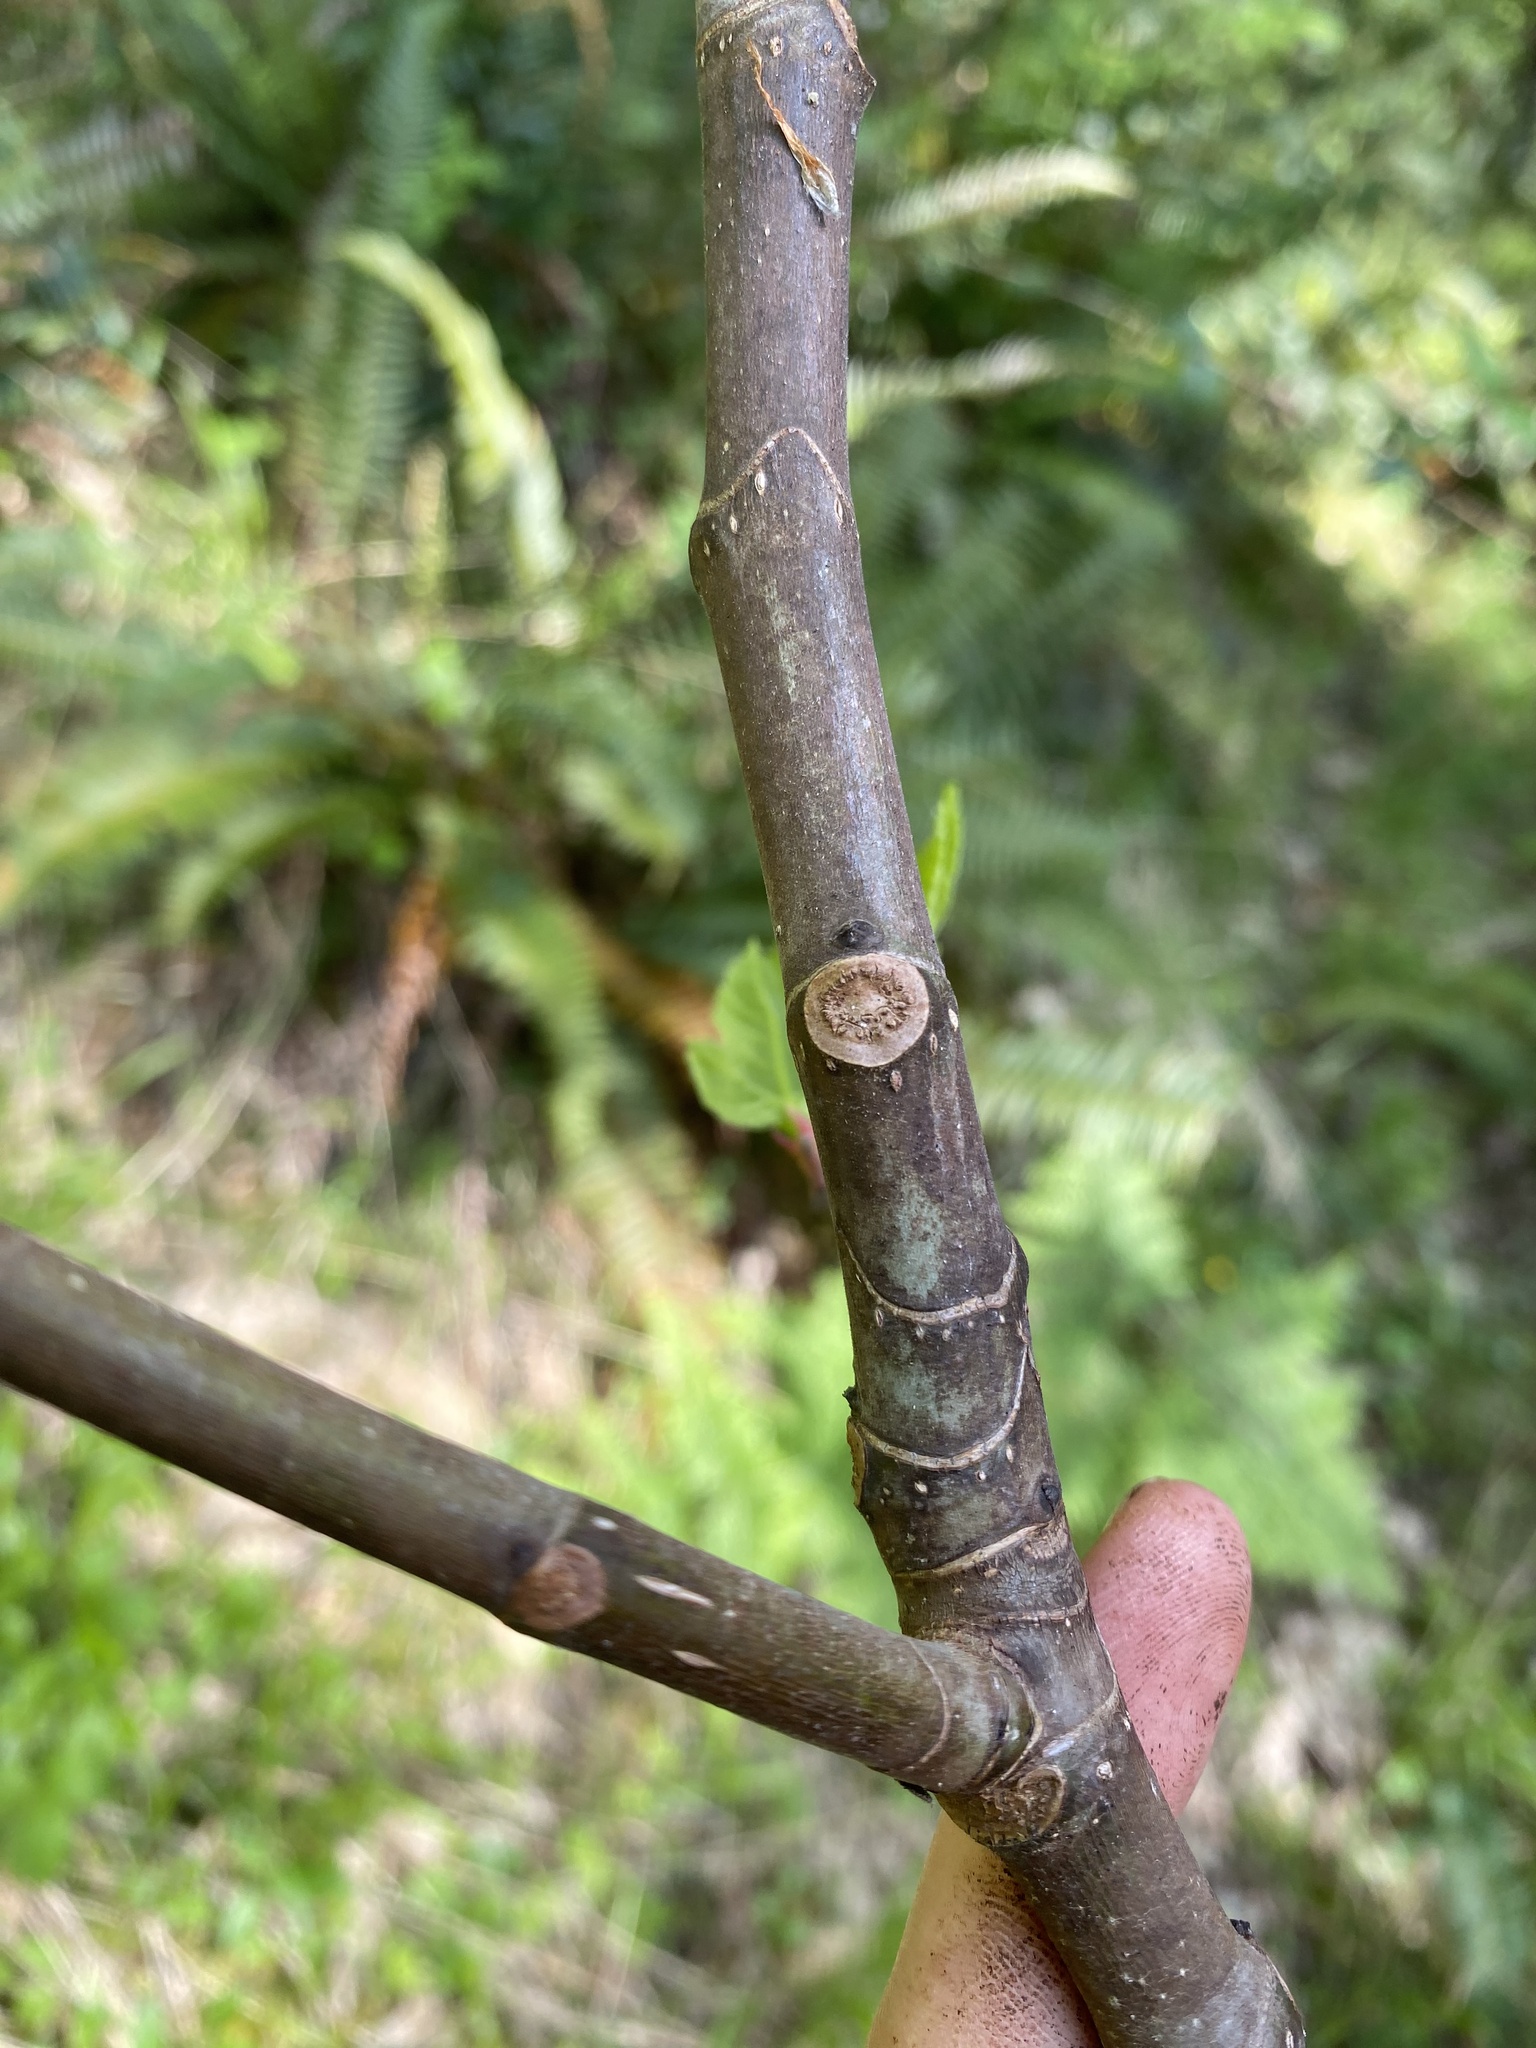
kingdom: Plantae
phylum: Tracheophyta
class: Magnoliopsida
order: Rosales
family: Moraceae
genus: Ficus
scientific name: Ficus carica
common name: Fig
